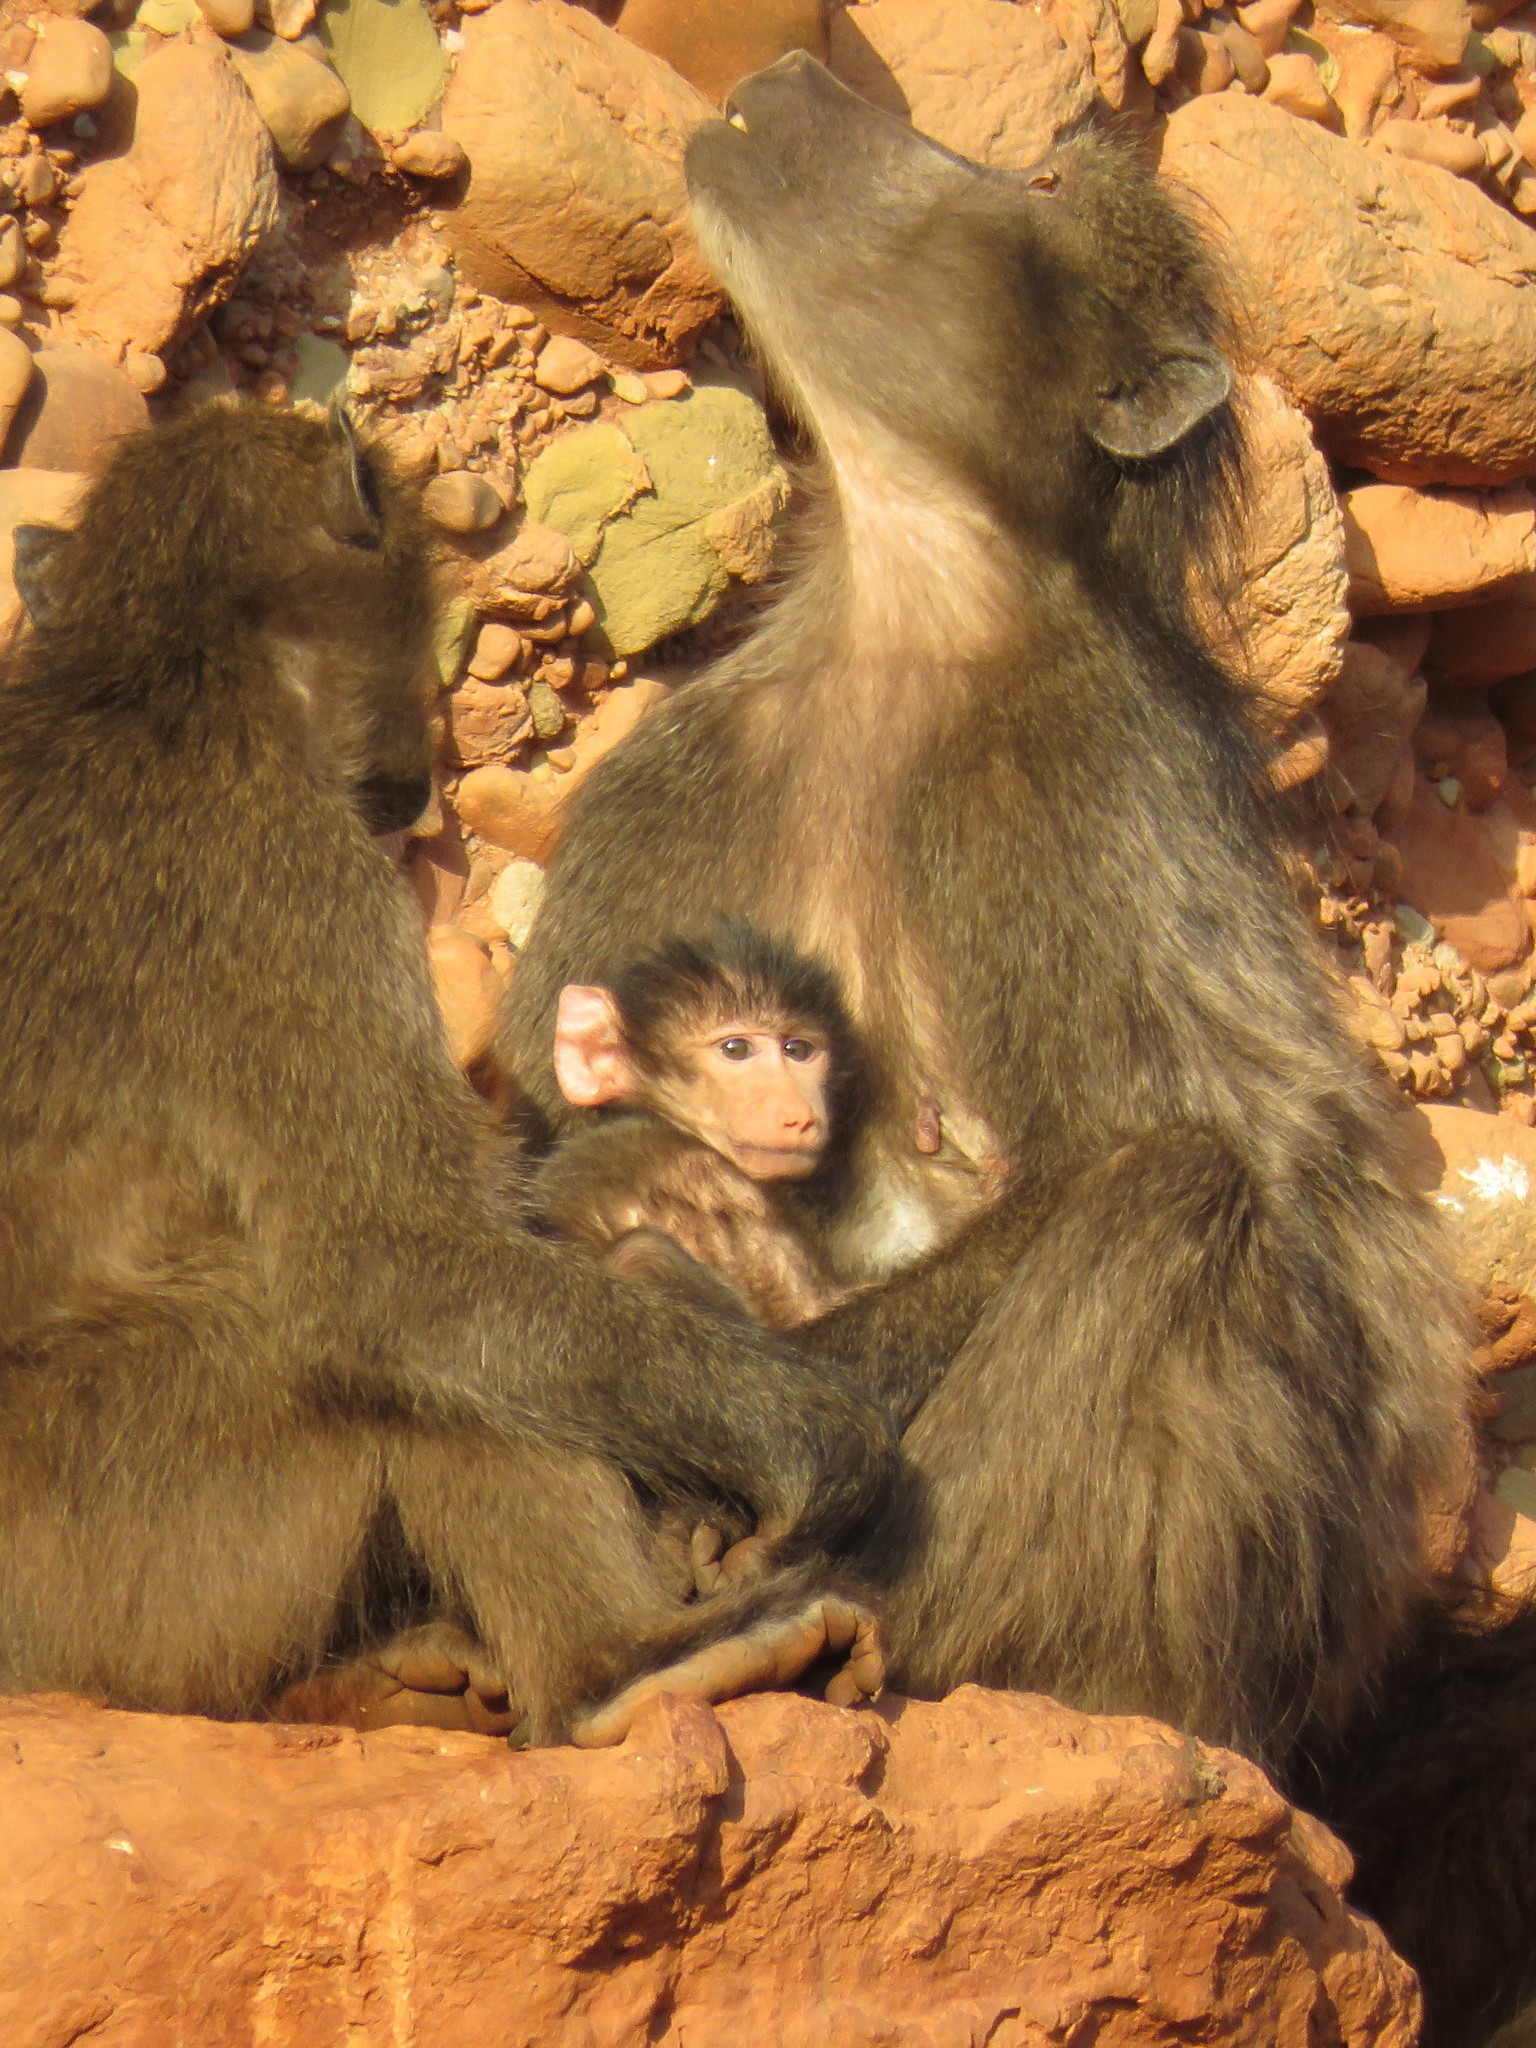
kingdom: Animalia
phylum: Chordata
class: Mammalia
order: Primates
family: Cercopithecidae
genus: Papio
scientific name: Papio ursinus
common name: Chacma baboon
